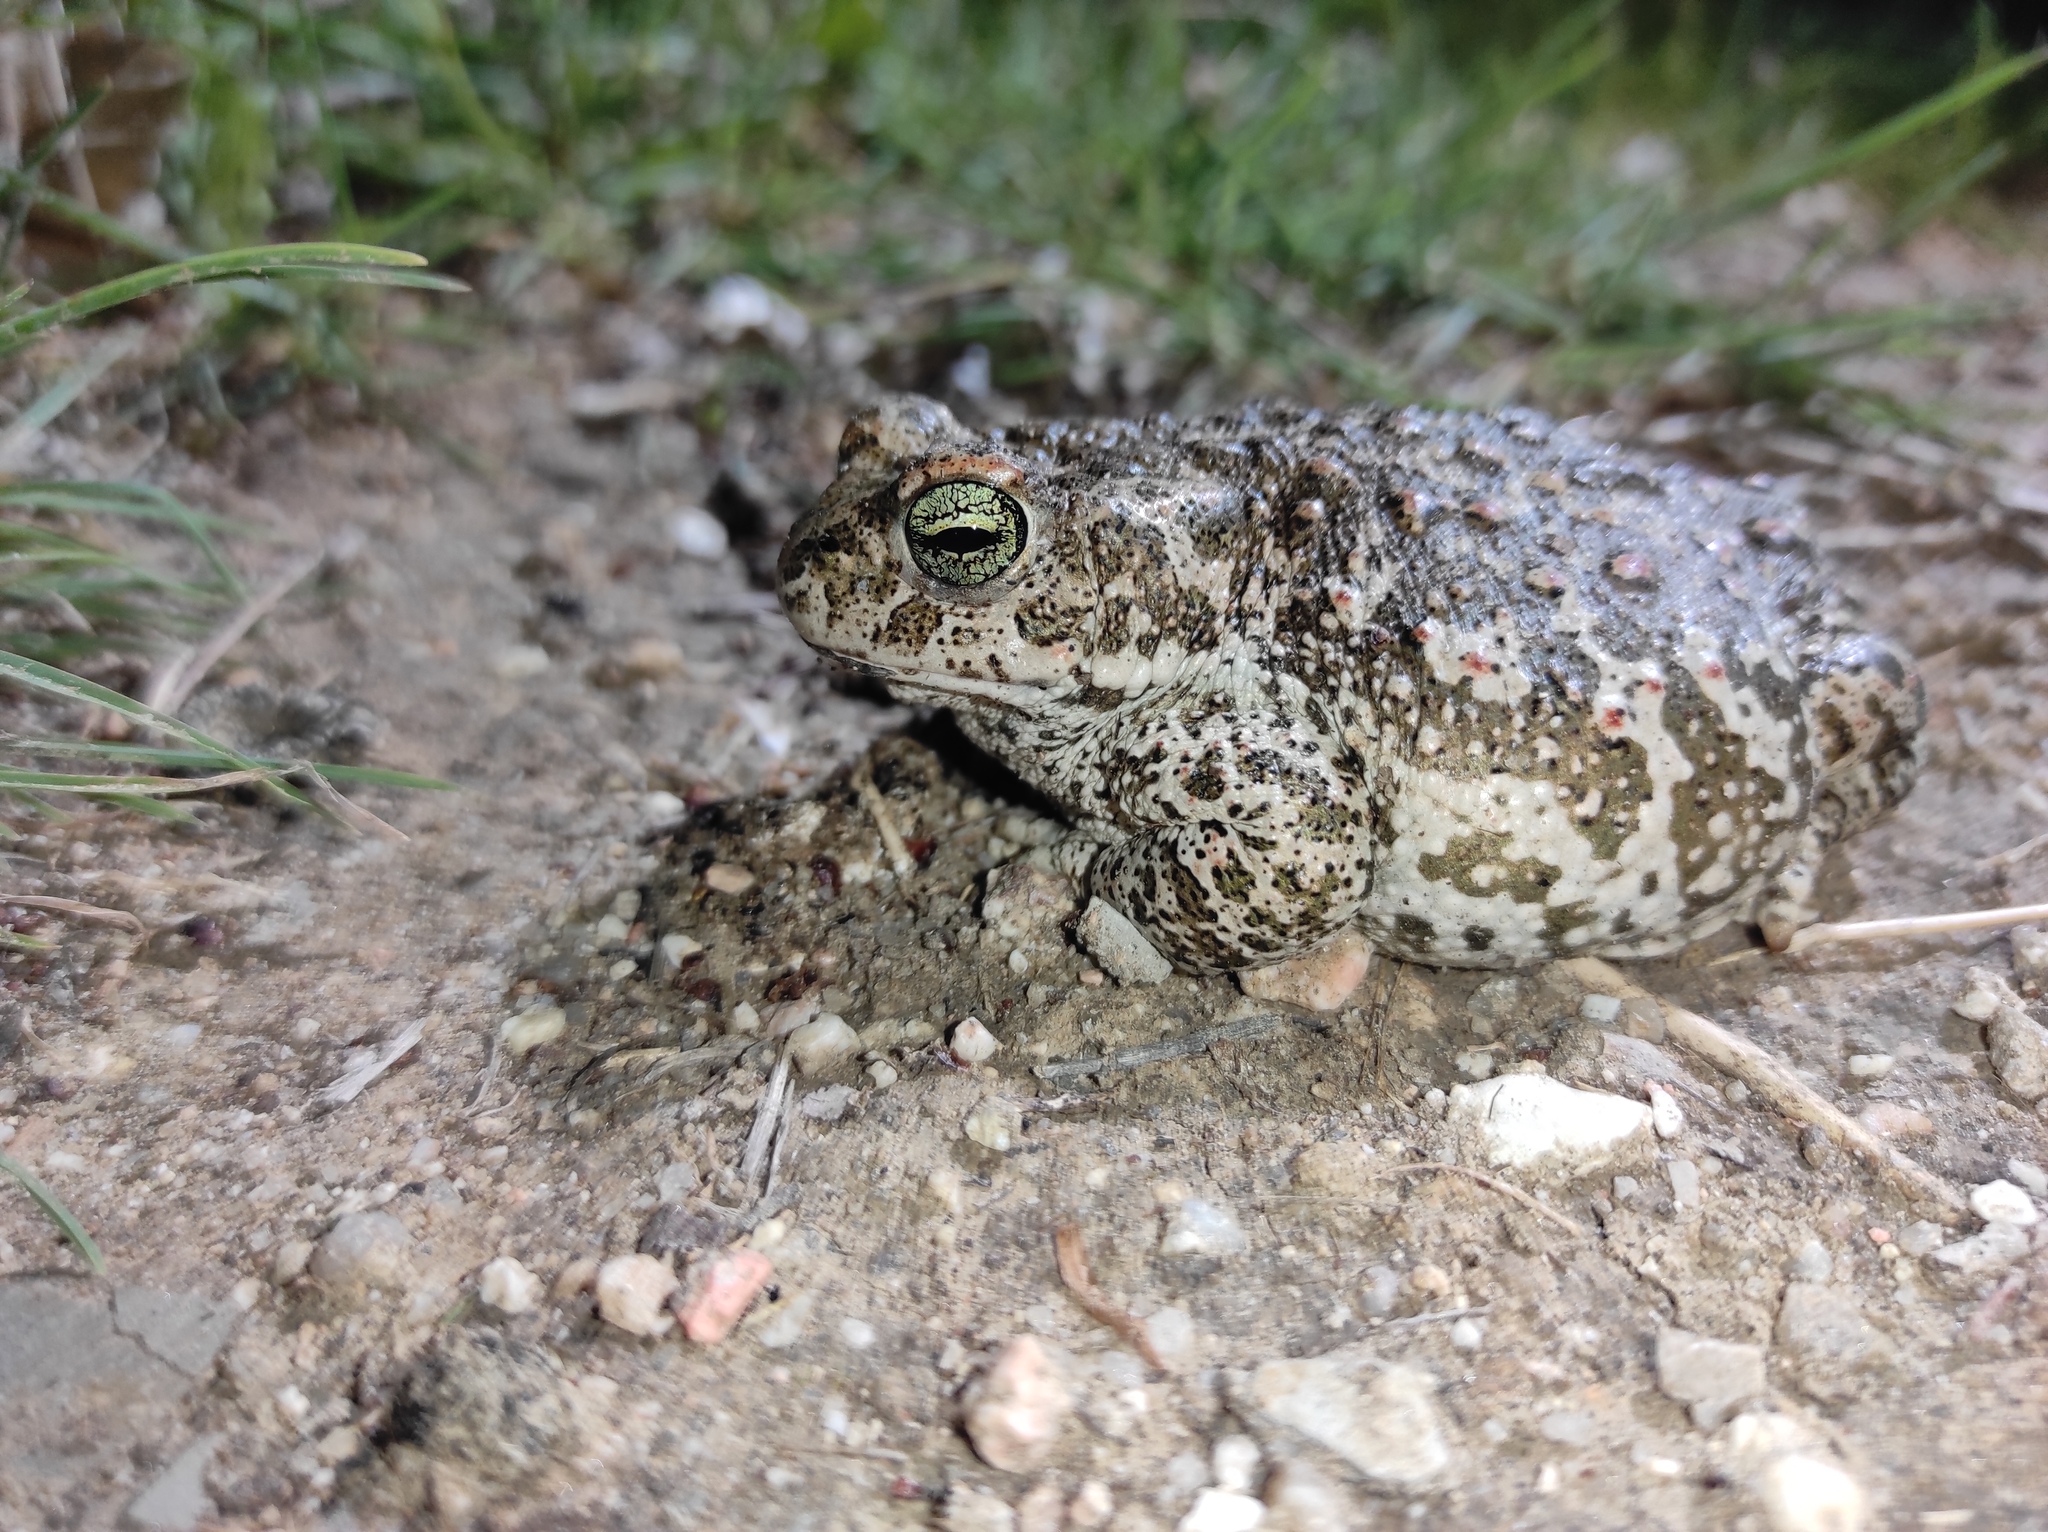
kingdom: Animalia
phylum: Chordata
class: Amphibia
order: Anura
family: Bufonidae
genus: Epidalea
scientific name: Epidalea calamita
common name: Natterjack toad
